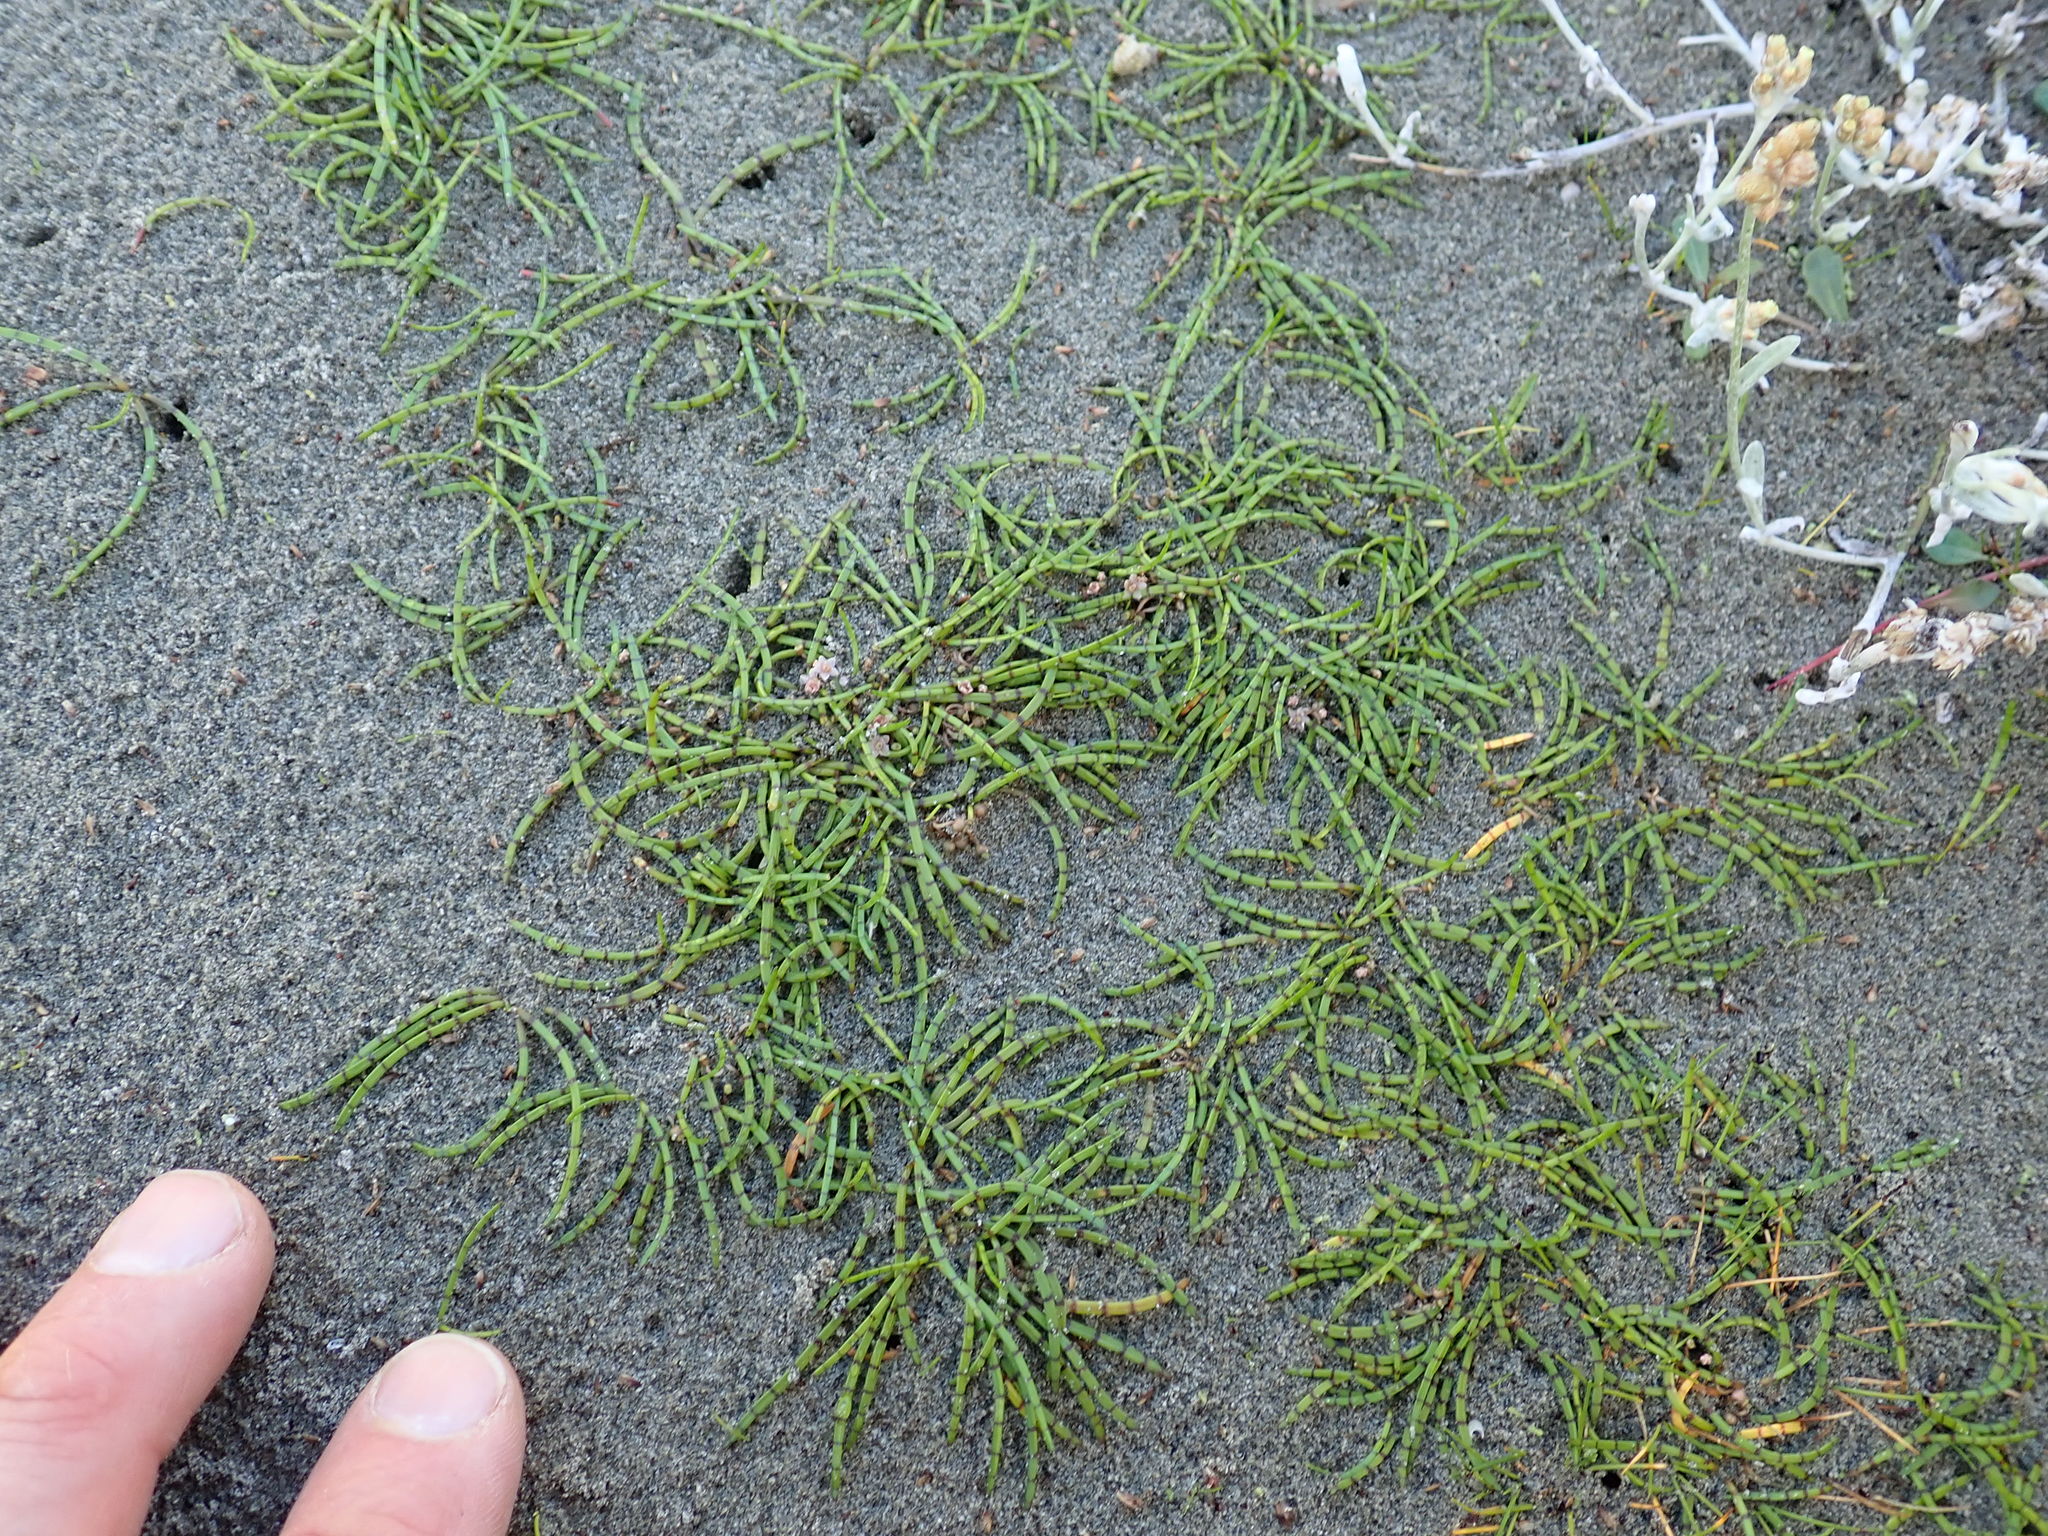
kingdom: Plantae
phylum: Tracheophyta
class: Magnoliopsida
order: Apiales
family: Apiaceae
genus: Lilaeopsis
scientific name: Lilaeopsis novae-zelandiae
